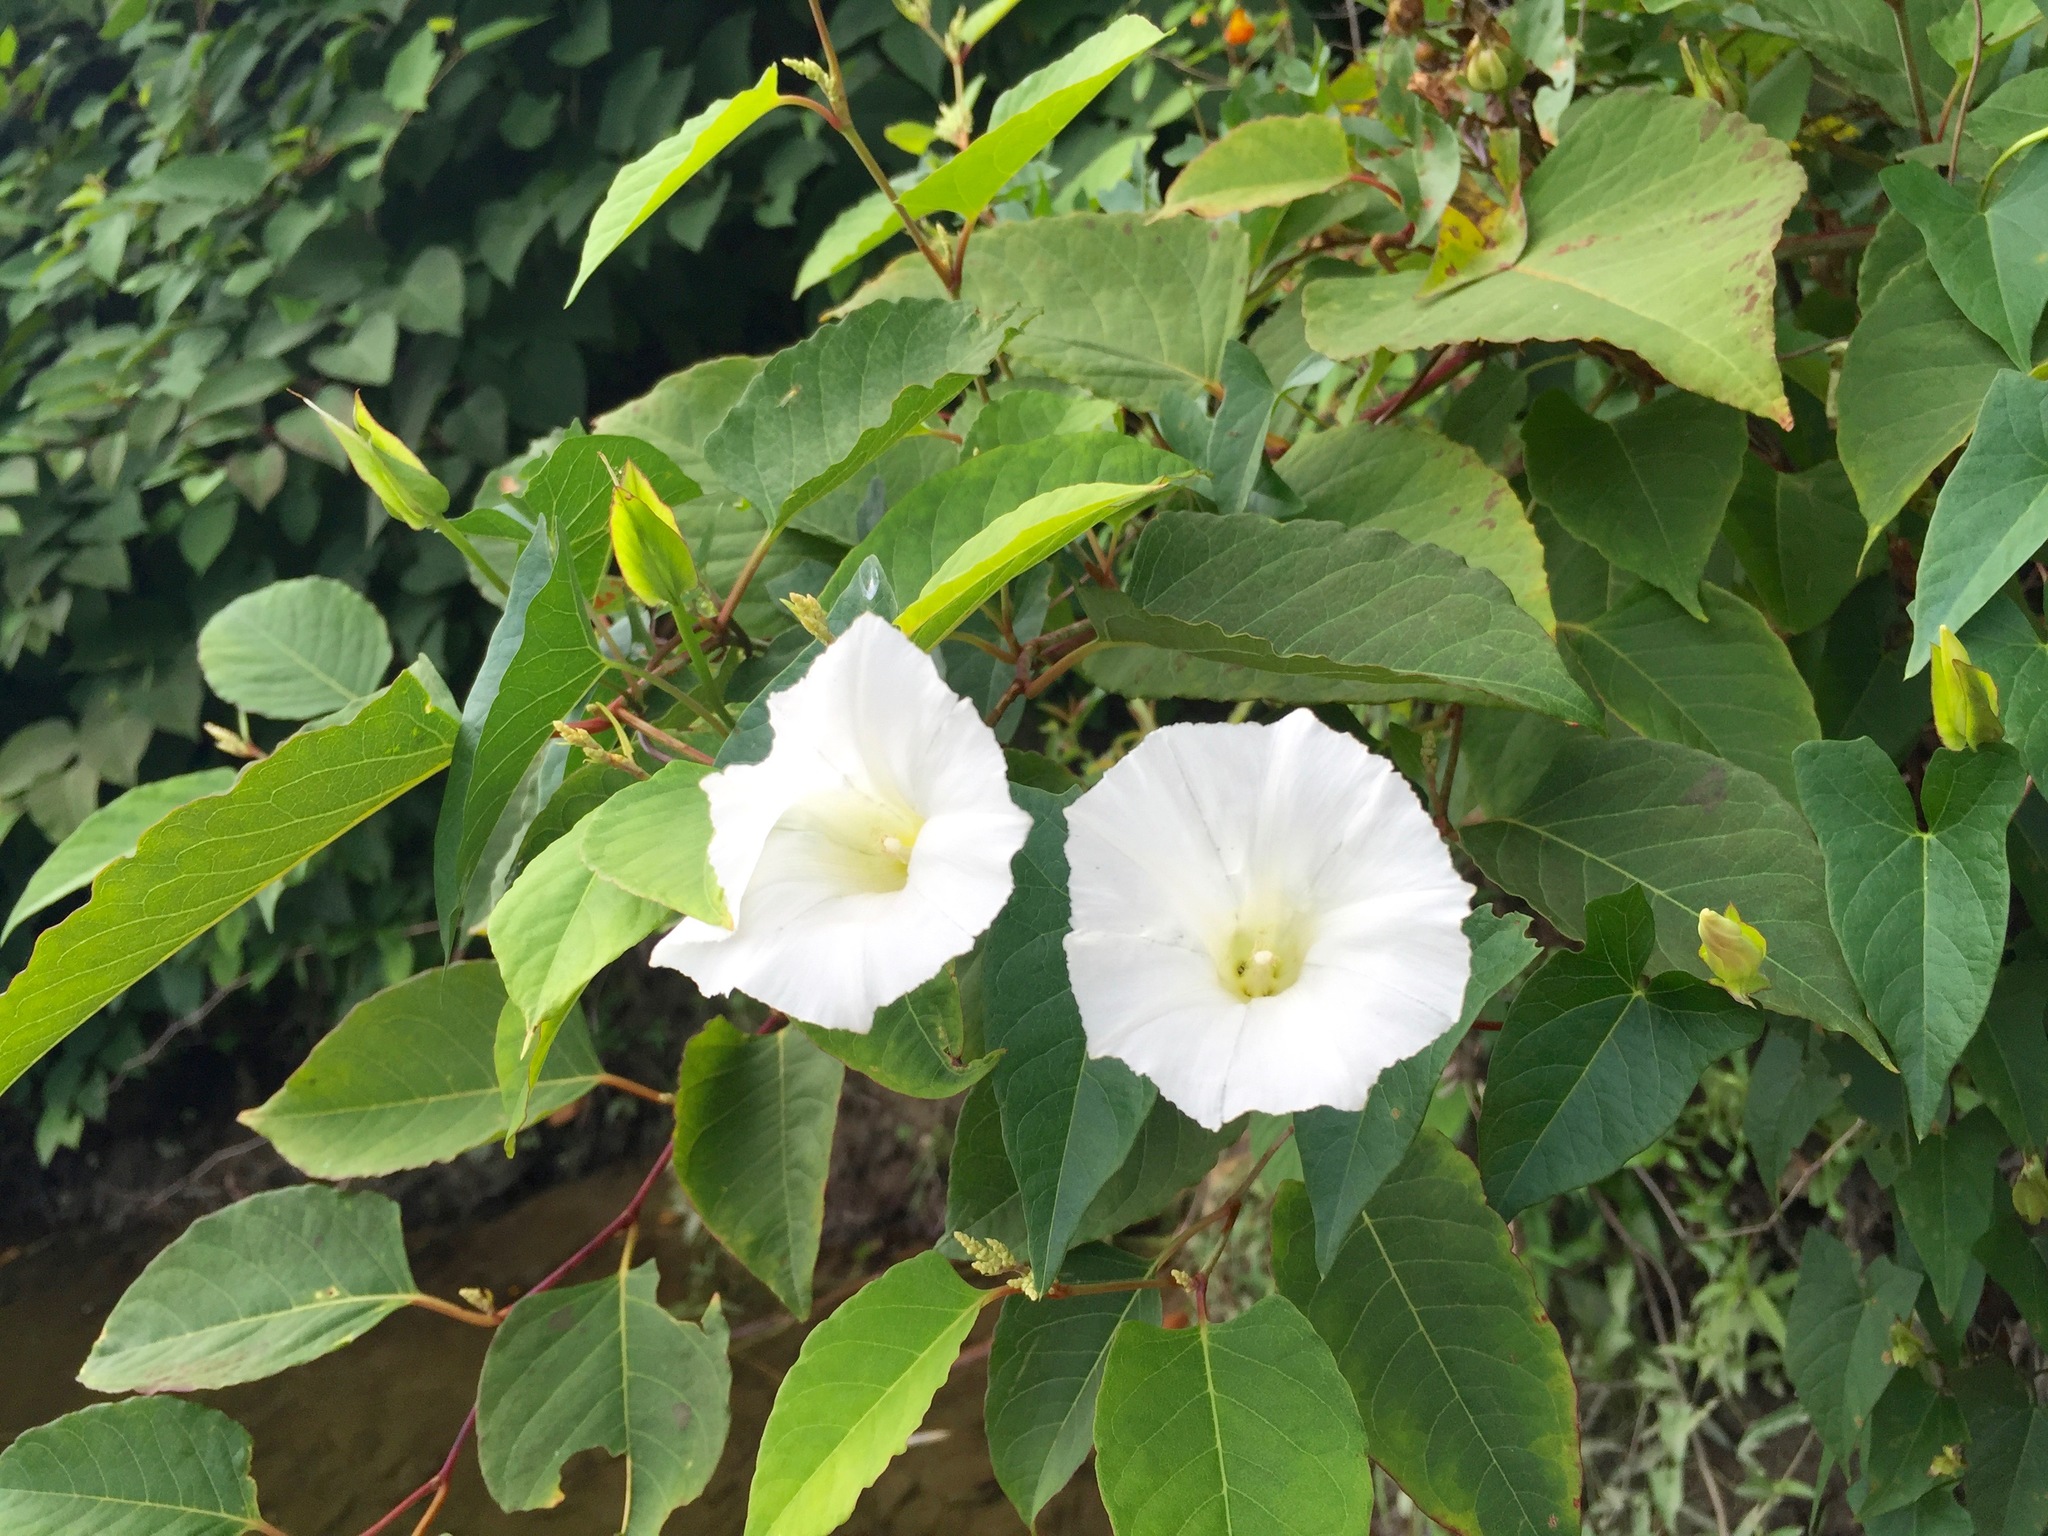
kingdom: Plantae
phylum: Tracheophyta
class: Magnoliopsida
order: Solanales
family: Convolvulaceae
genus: Calystegia
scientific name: Calystegia sepium
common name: Hedge bindweed
